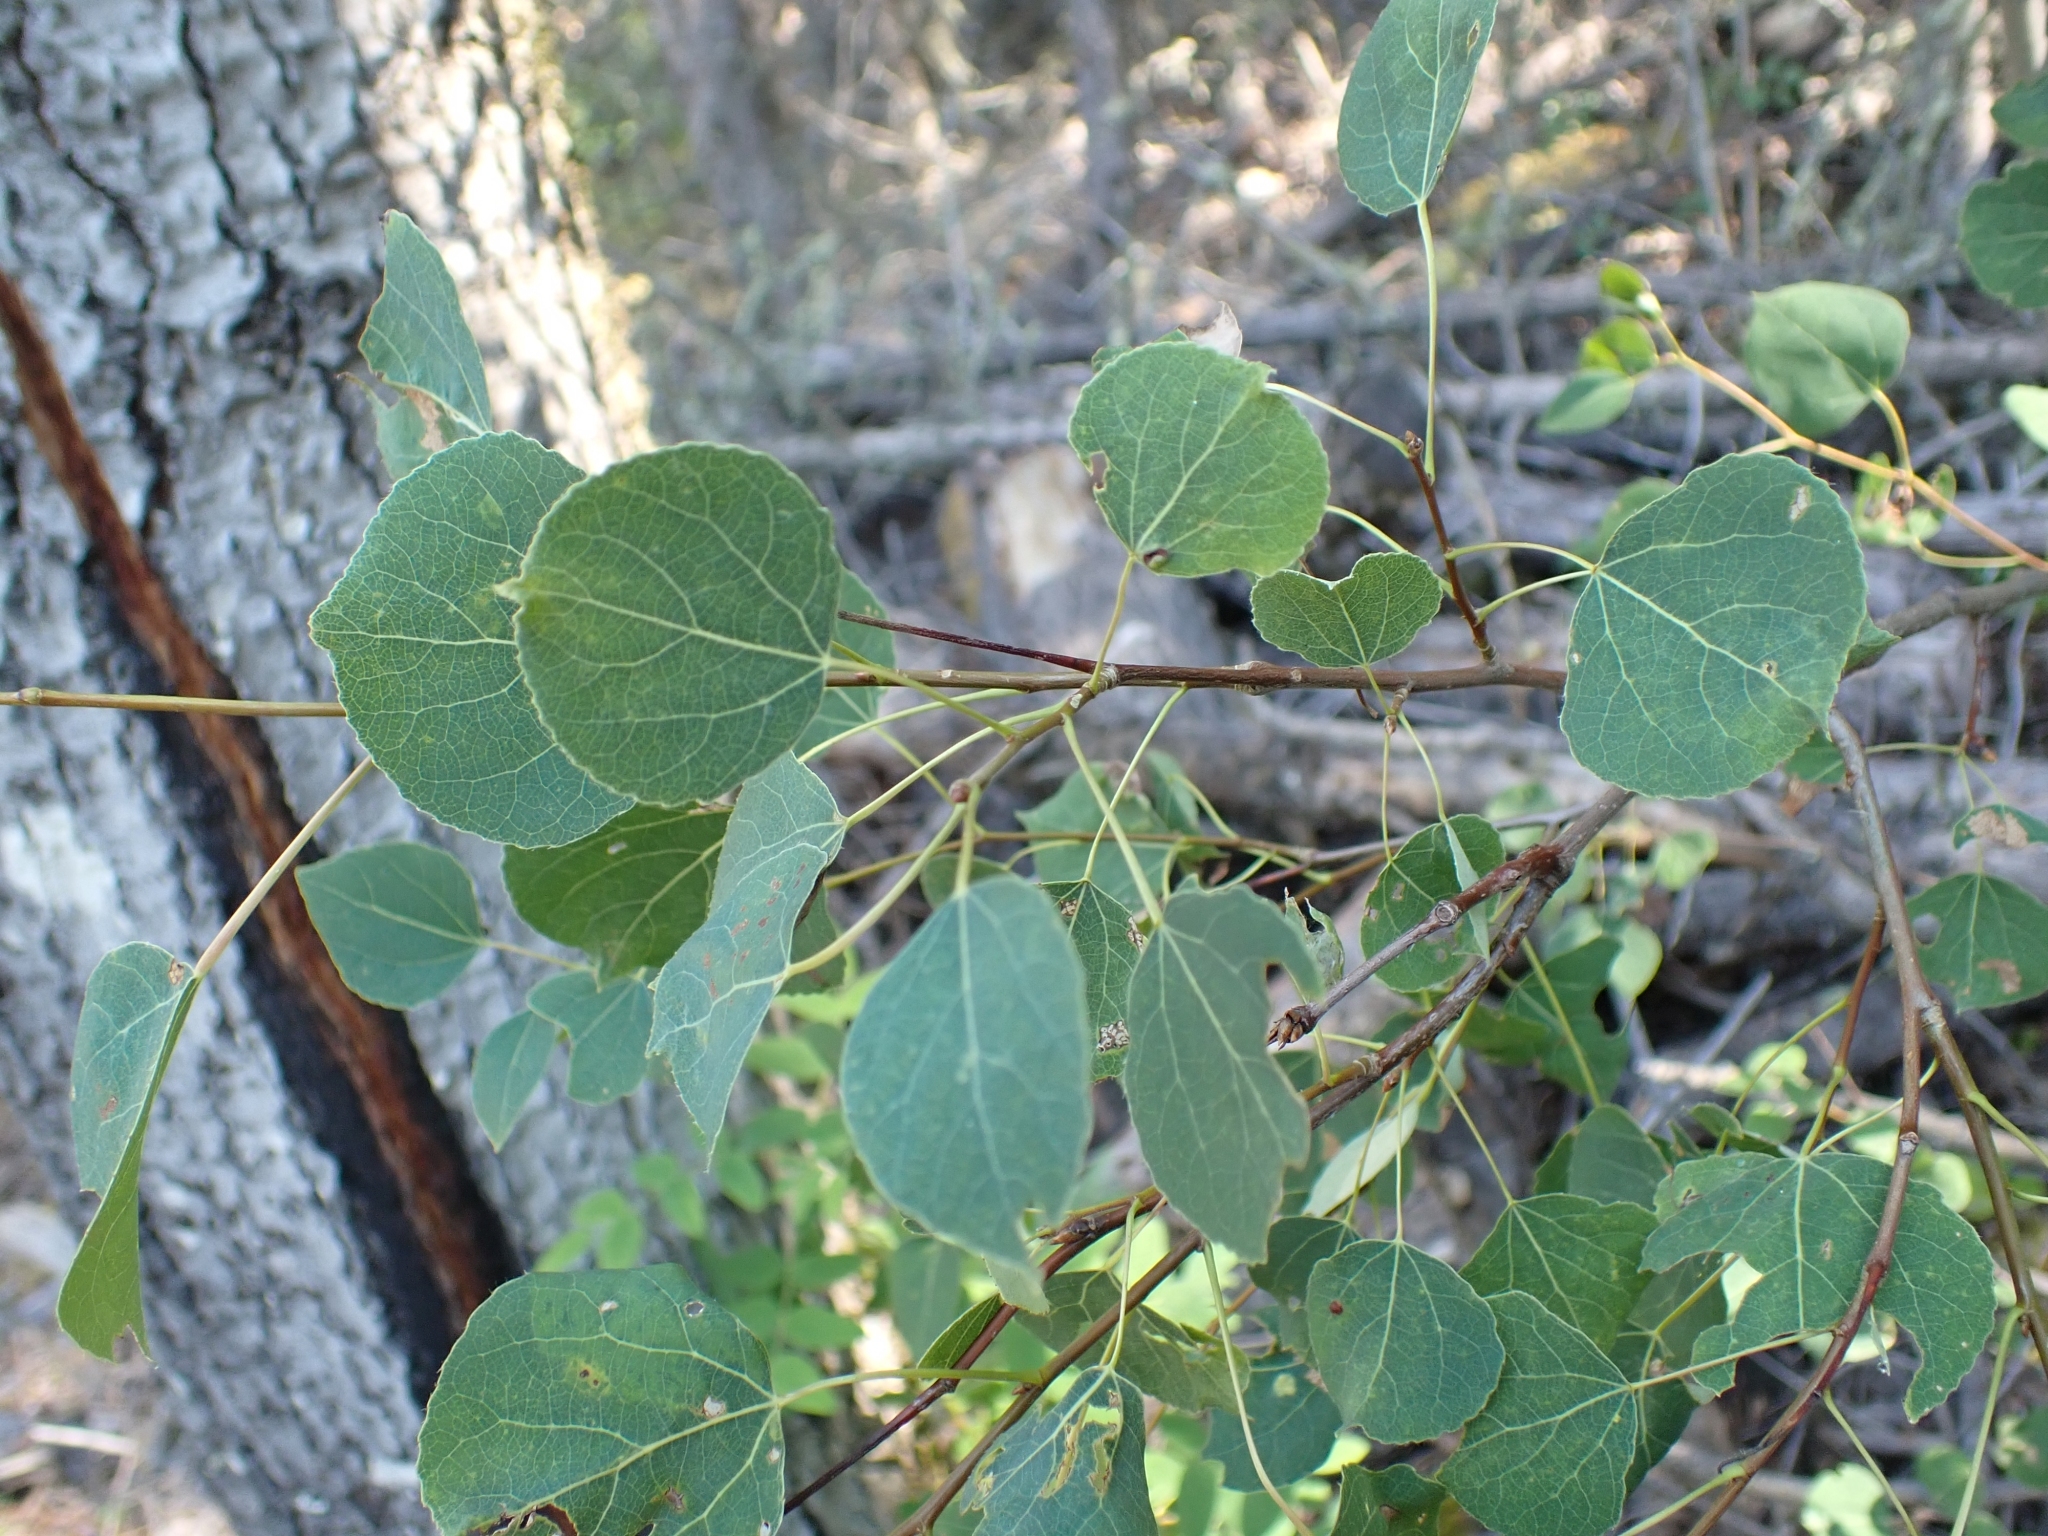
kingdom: Plantae
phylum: Tracheophyta
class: Magnoliopsida
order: Malpighiales
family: Salicaceae
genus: Populus
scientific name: Populus tremuloides
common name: Quaking aspen
